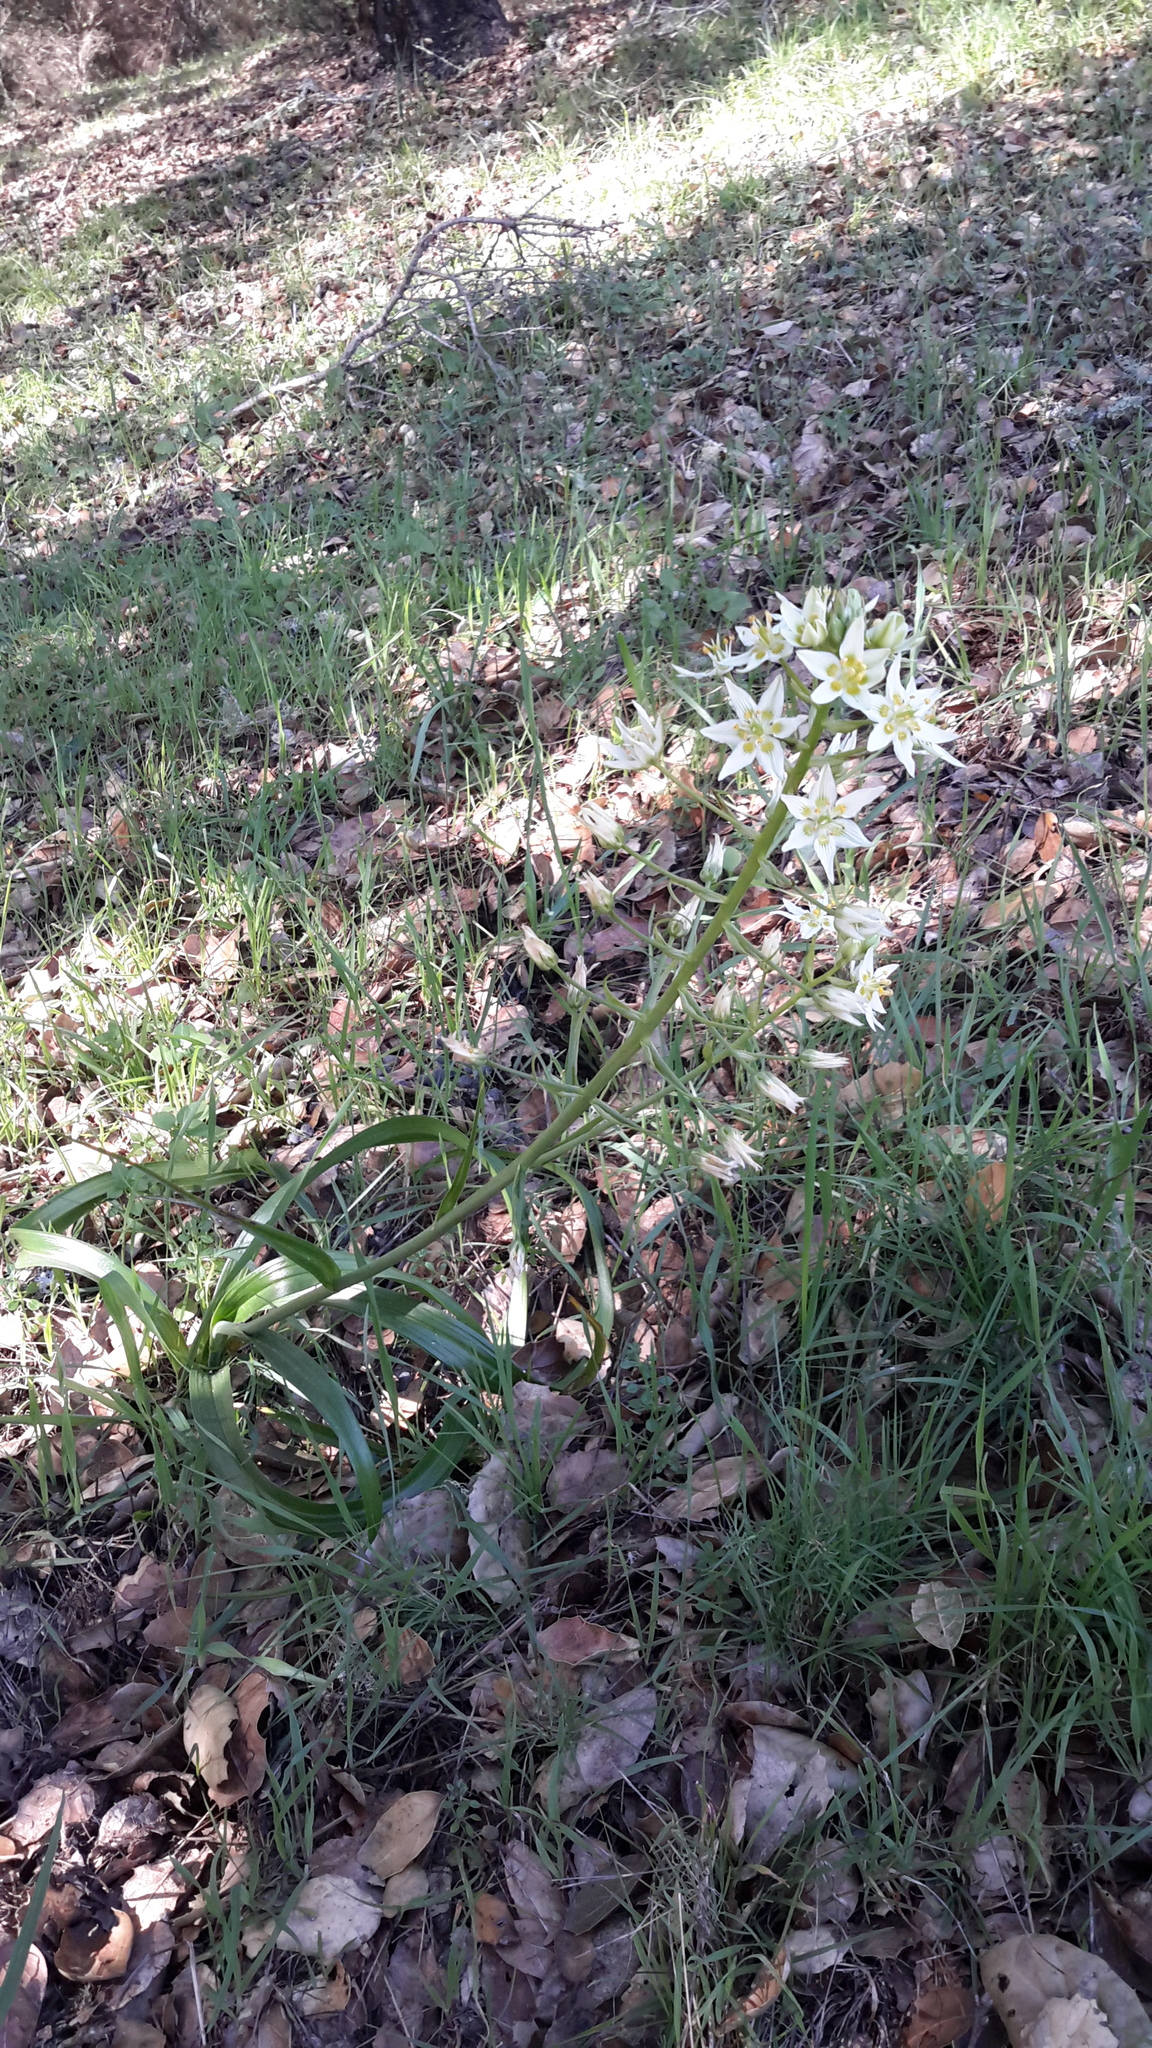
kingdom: Plantae
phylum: Tracheophyta
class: Liliopsida
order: Liliales
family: Melanthiaceae
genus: Toxicoscordion
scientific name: Toxicoscordion fremontii
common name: Fremont's death camas
